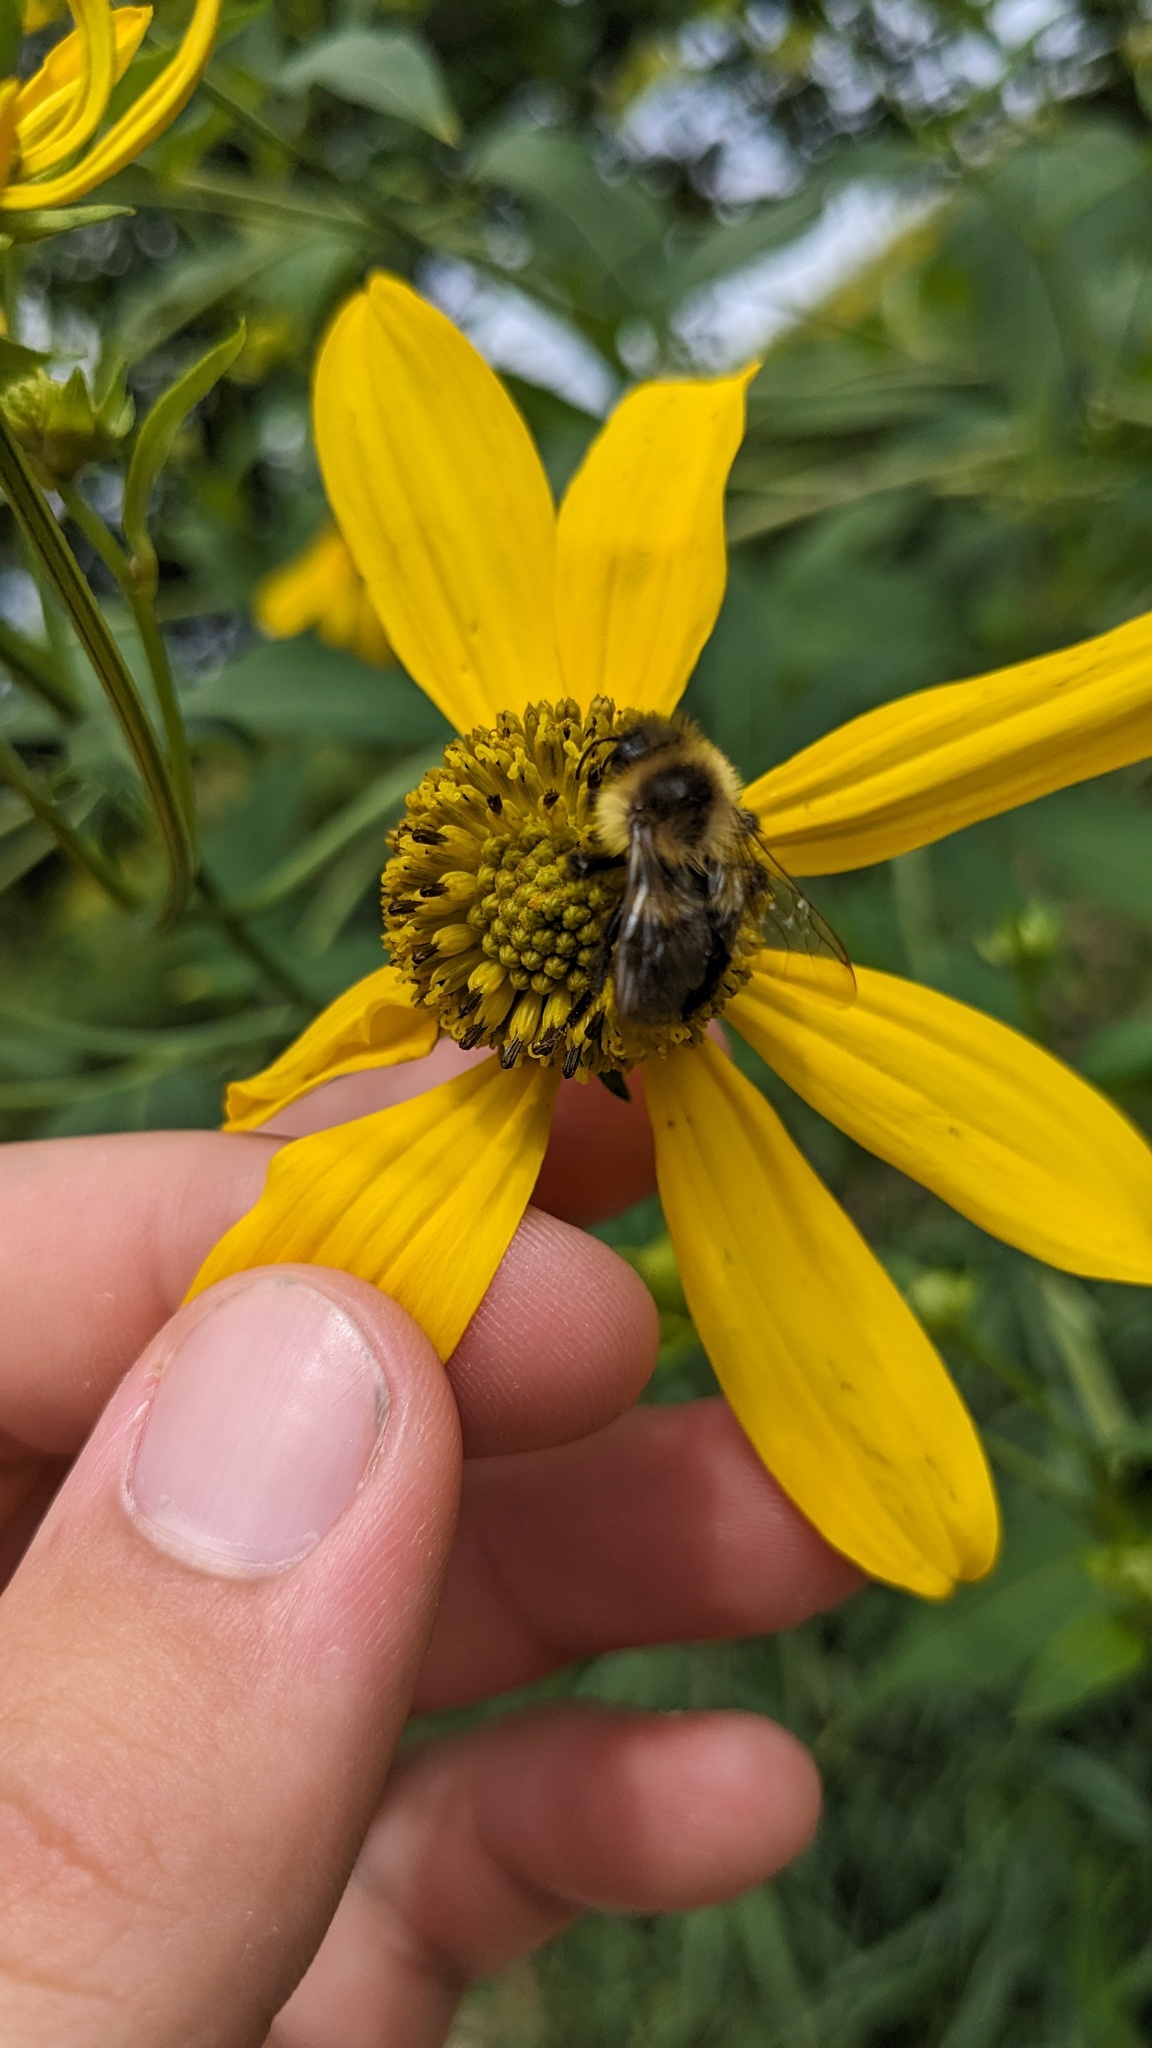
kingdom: Animalia
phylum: Arthropoda
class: Insecta
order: Hymenoptera
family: Apidae
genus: Bombus
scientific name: Bombus impatiens
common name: Common eastern bumble bee
